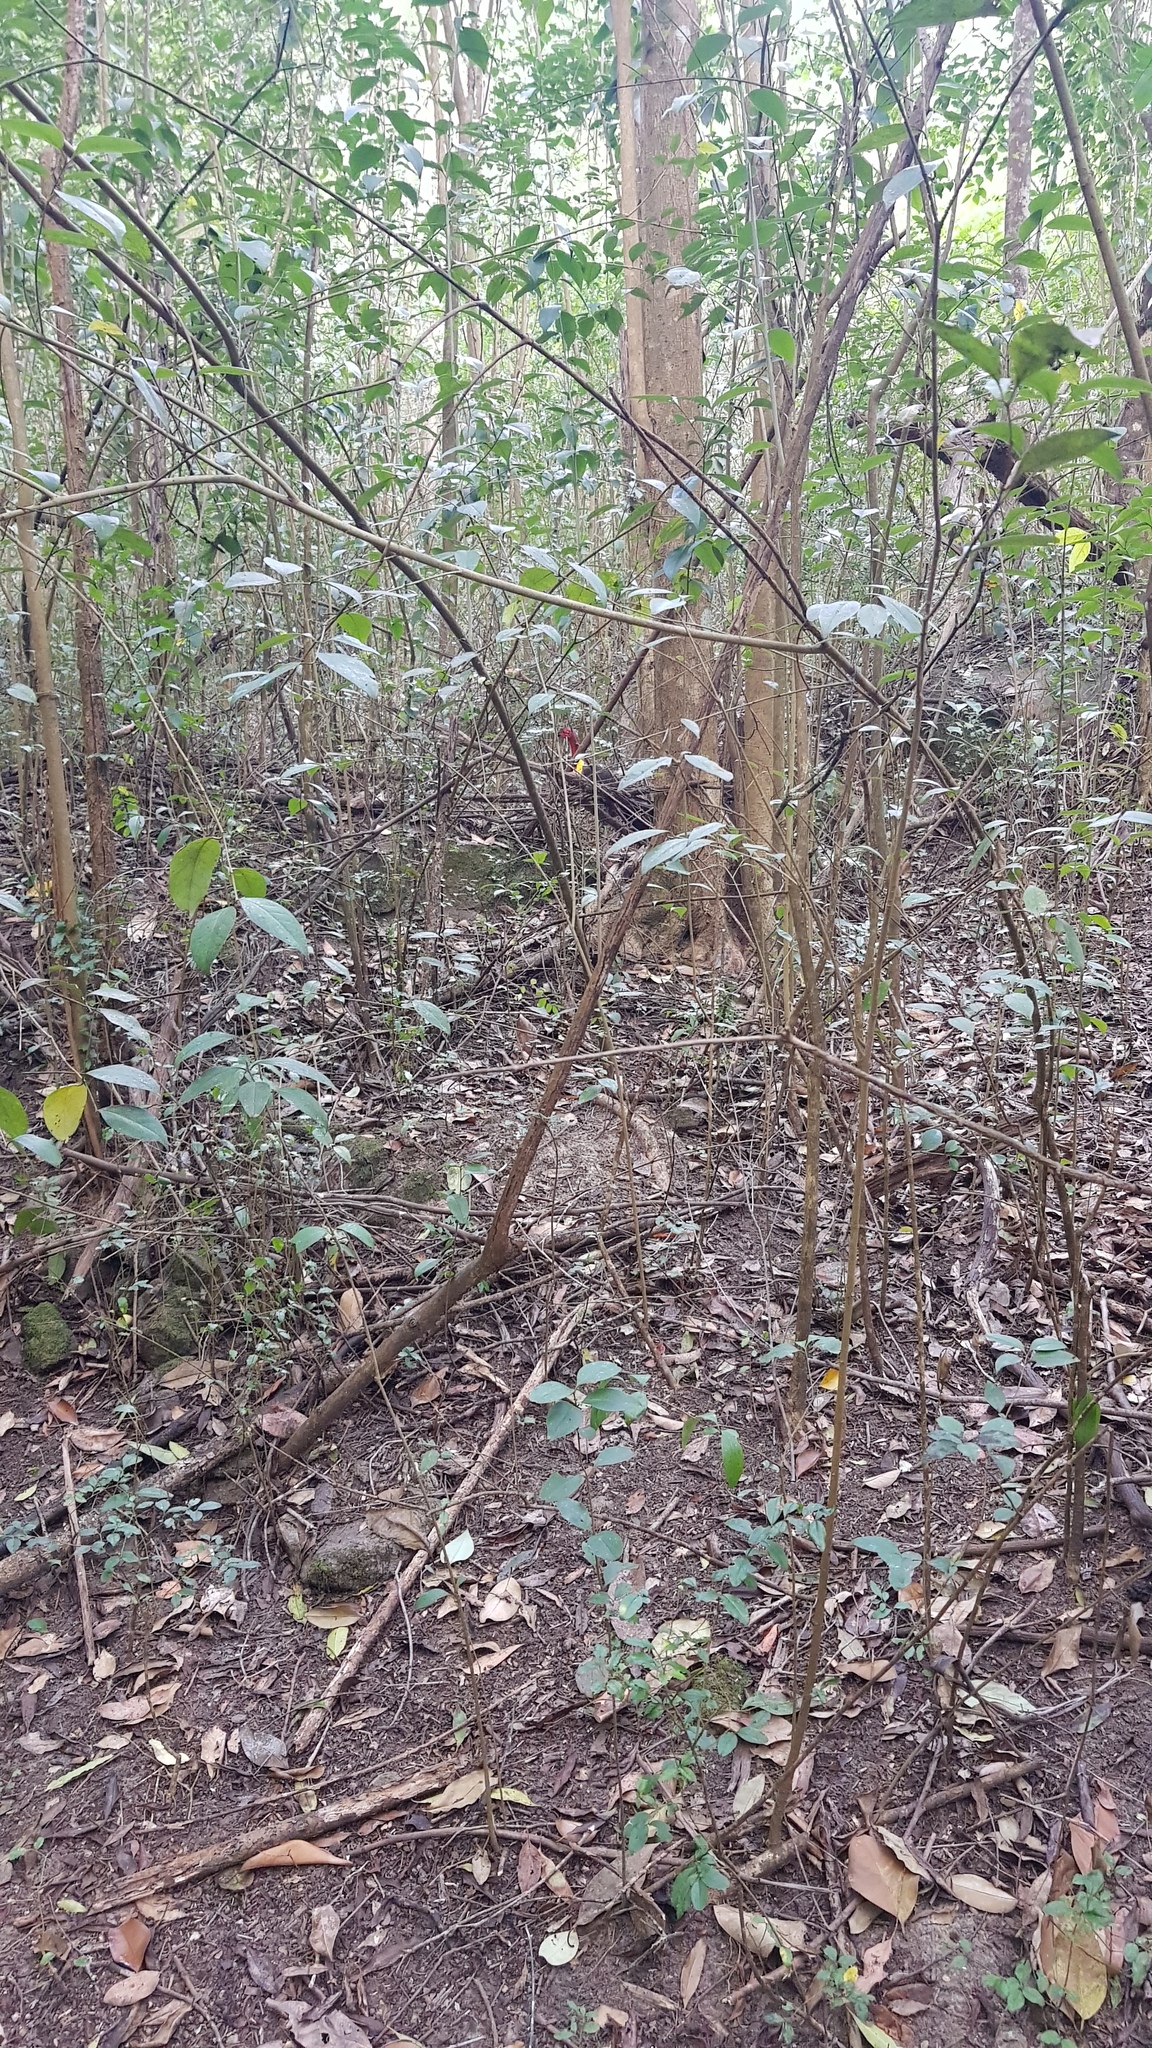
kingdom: Animalia
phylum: Chordata
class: Aves
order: Galliformes
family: Megapodiidae
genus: Alectura
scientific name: Alectura lathami
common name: Australian brushturkey
